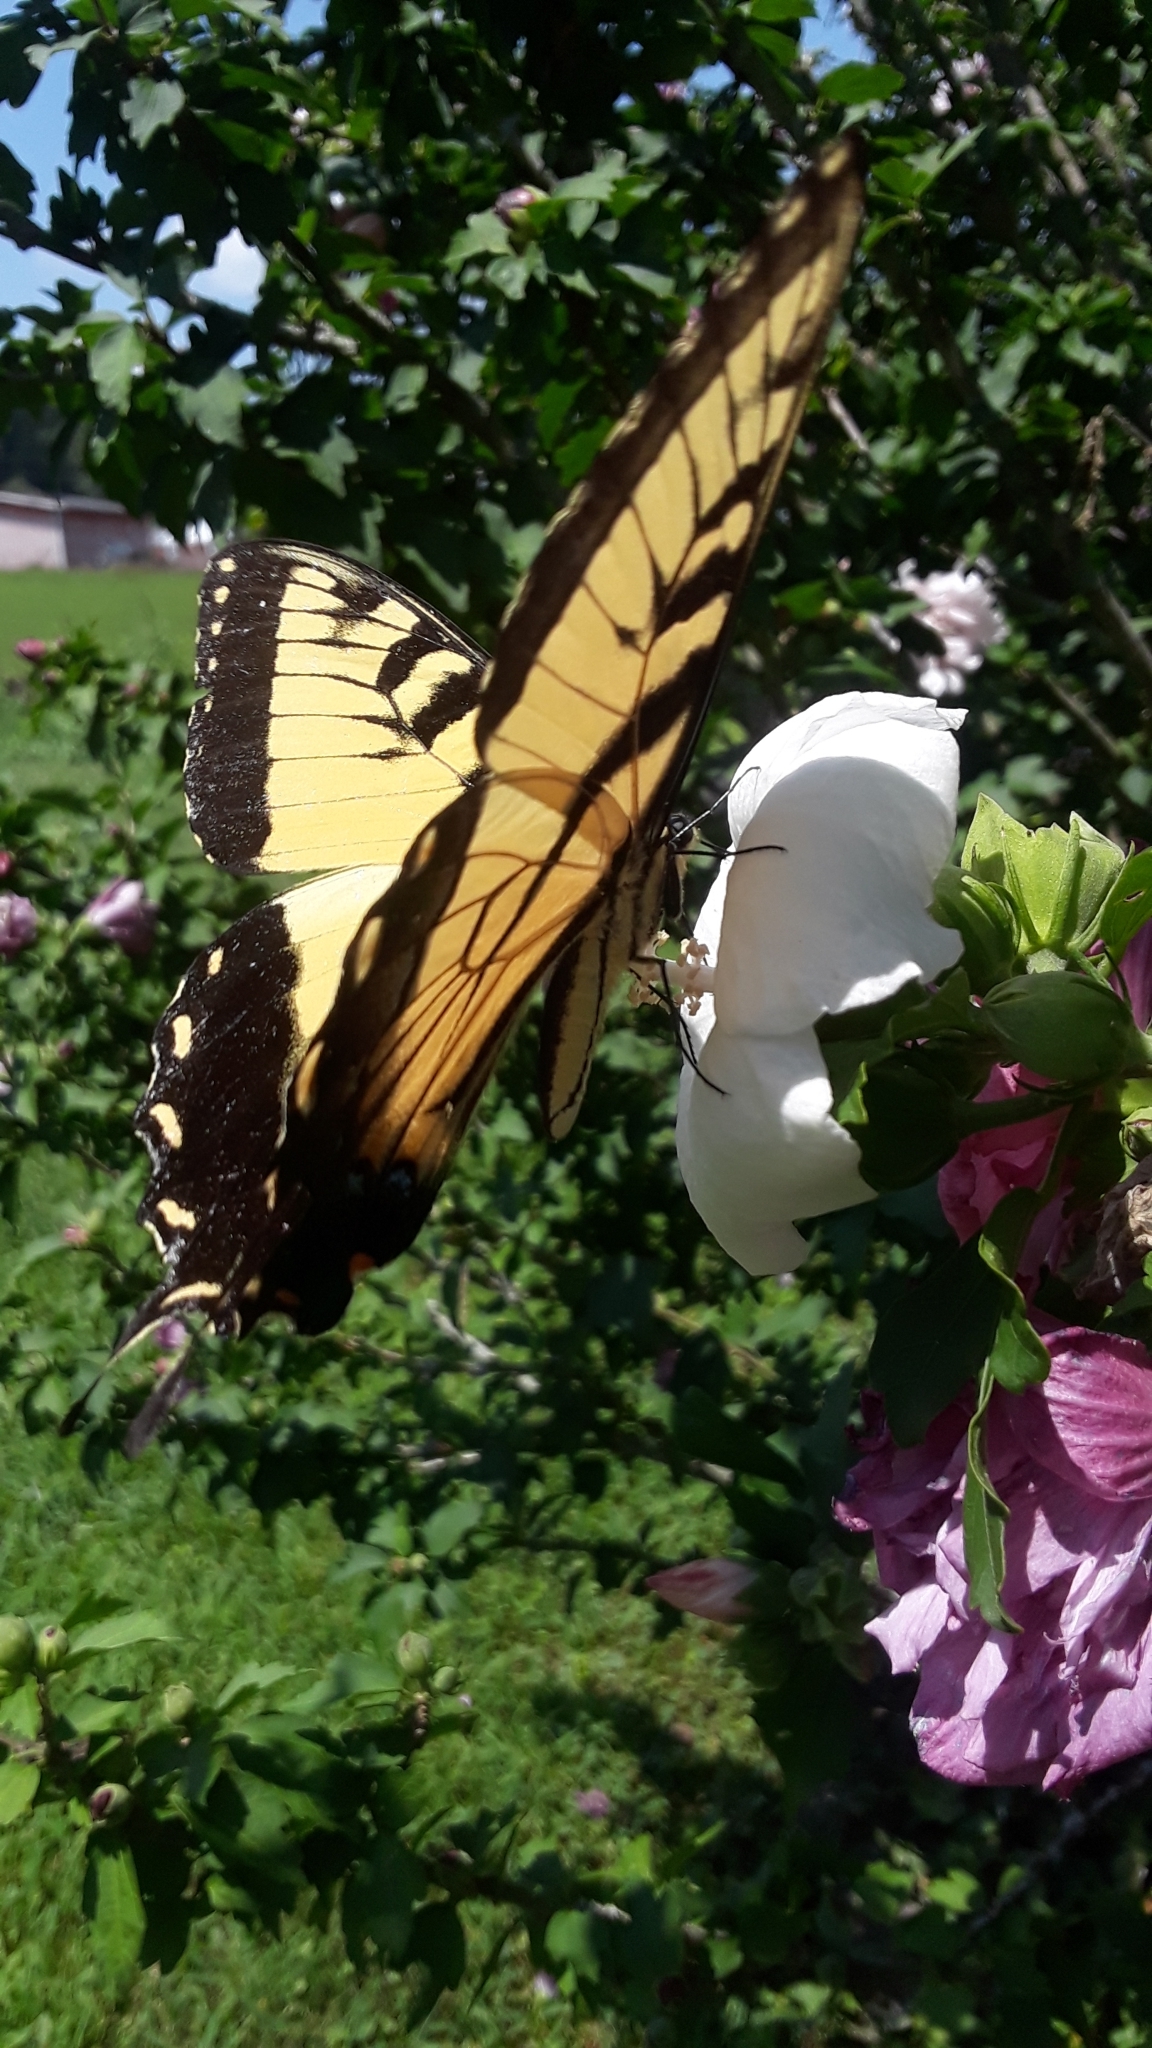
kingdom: Animalia
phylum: Arthropoda
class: Insecta
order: Lepidoptera
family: Papilionidae
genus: Papilio
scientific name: Papilio glaucus
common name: Tiger swallowtail
